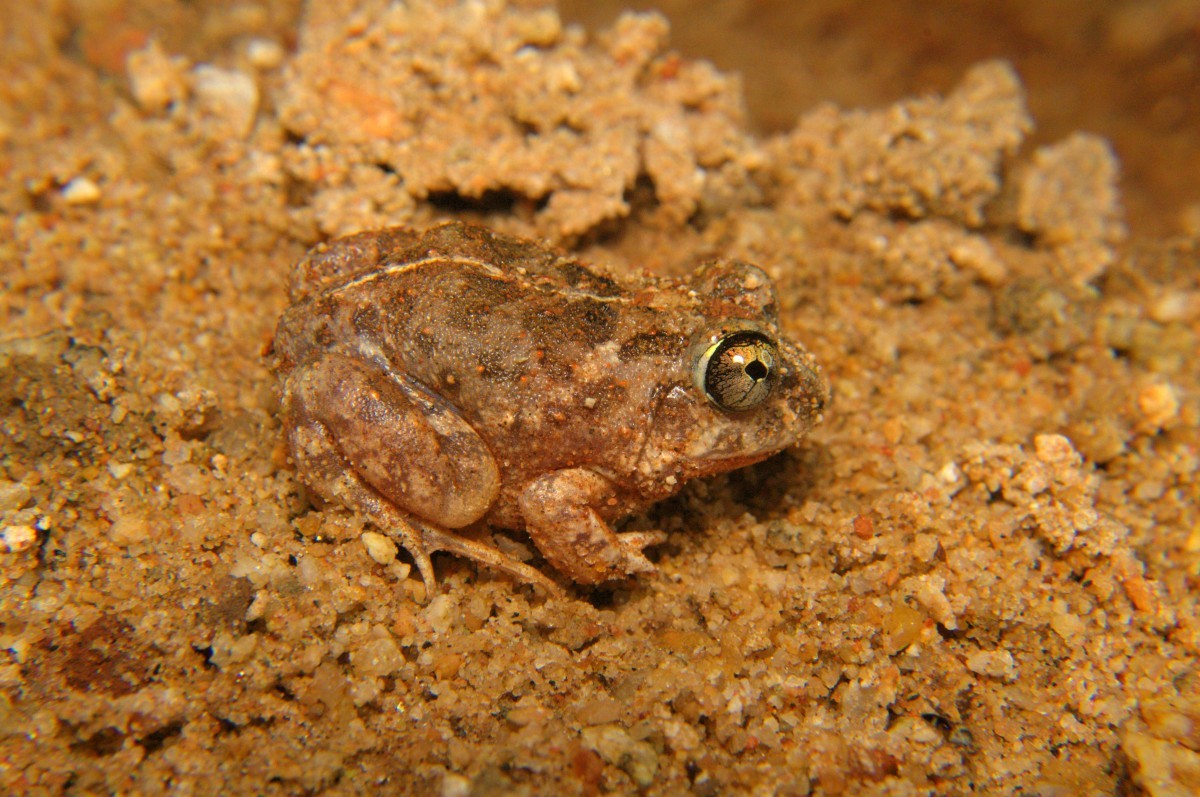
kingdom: Animalia
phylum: Chordata
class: Amphibia
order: Anura
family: Dicroglossidae
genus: Sphaerotheca
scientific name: Sphaerotheca rolandae
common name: Marble sand frog
